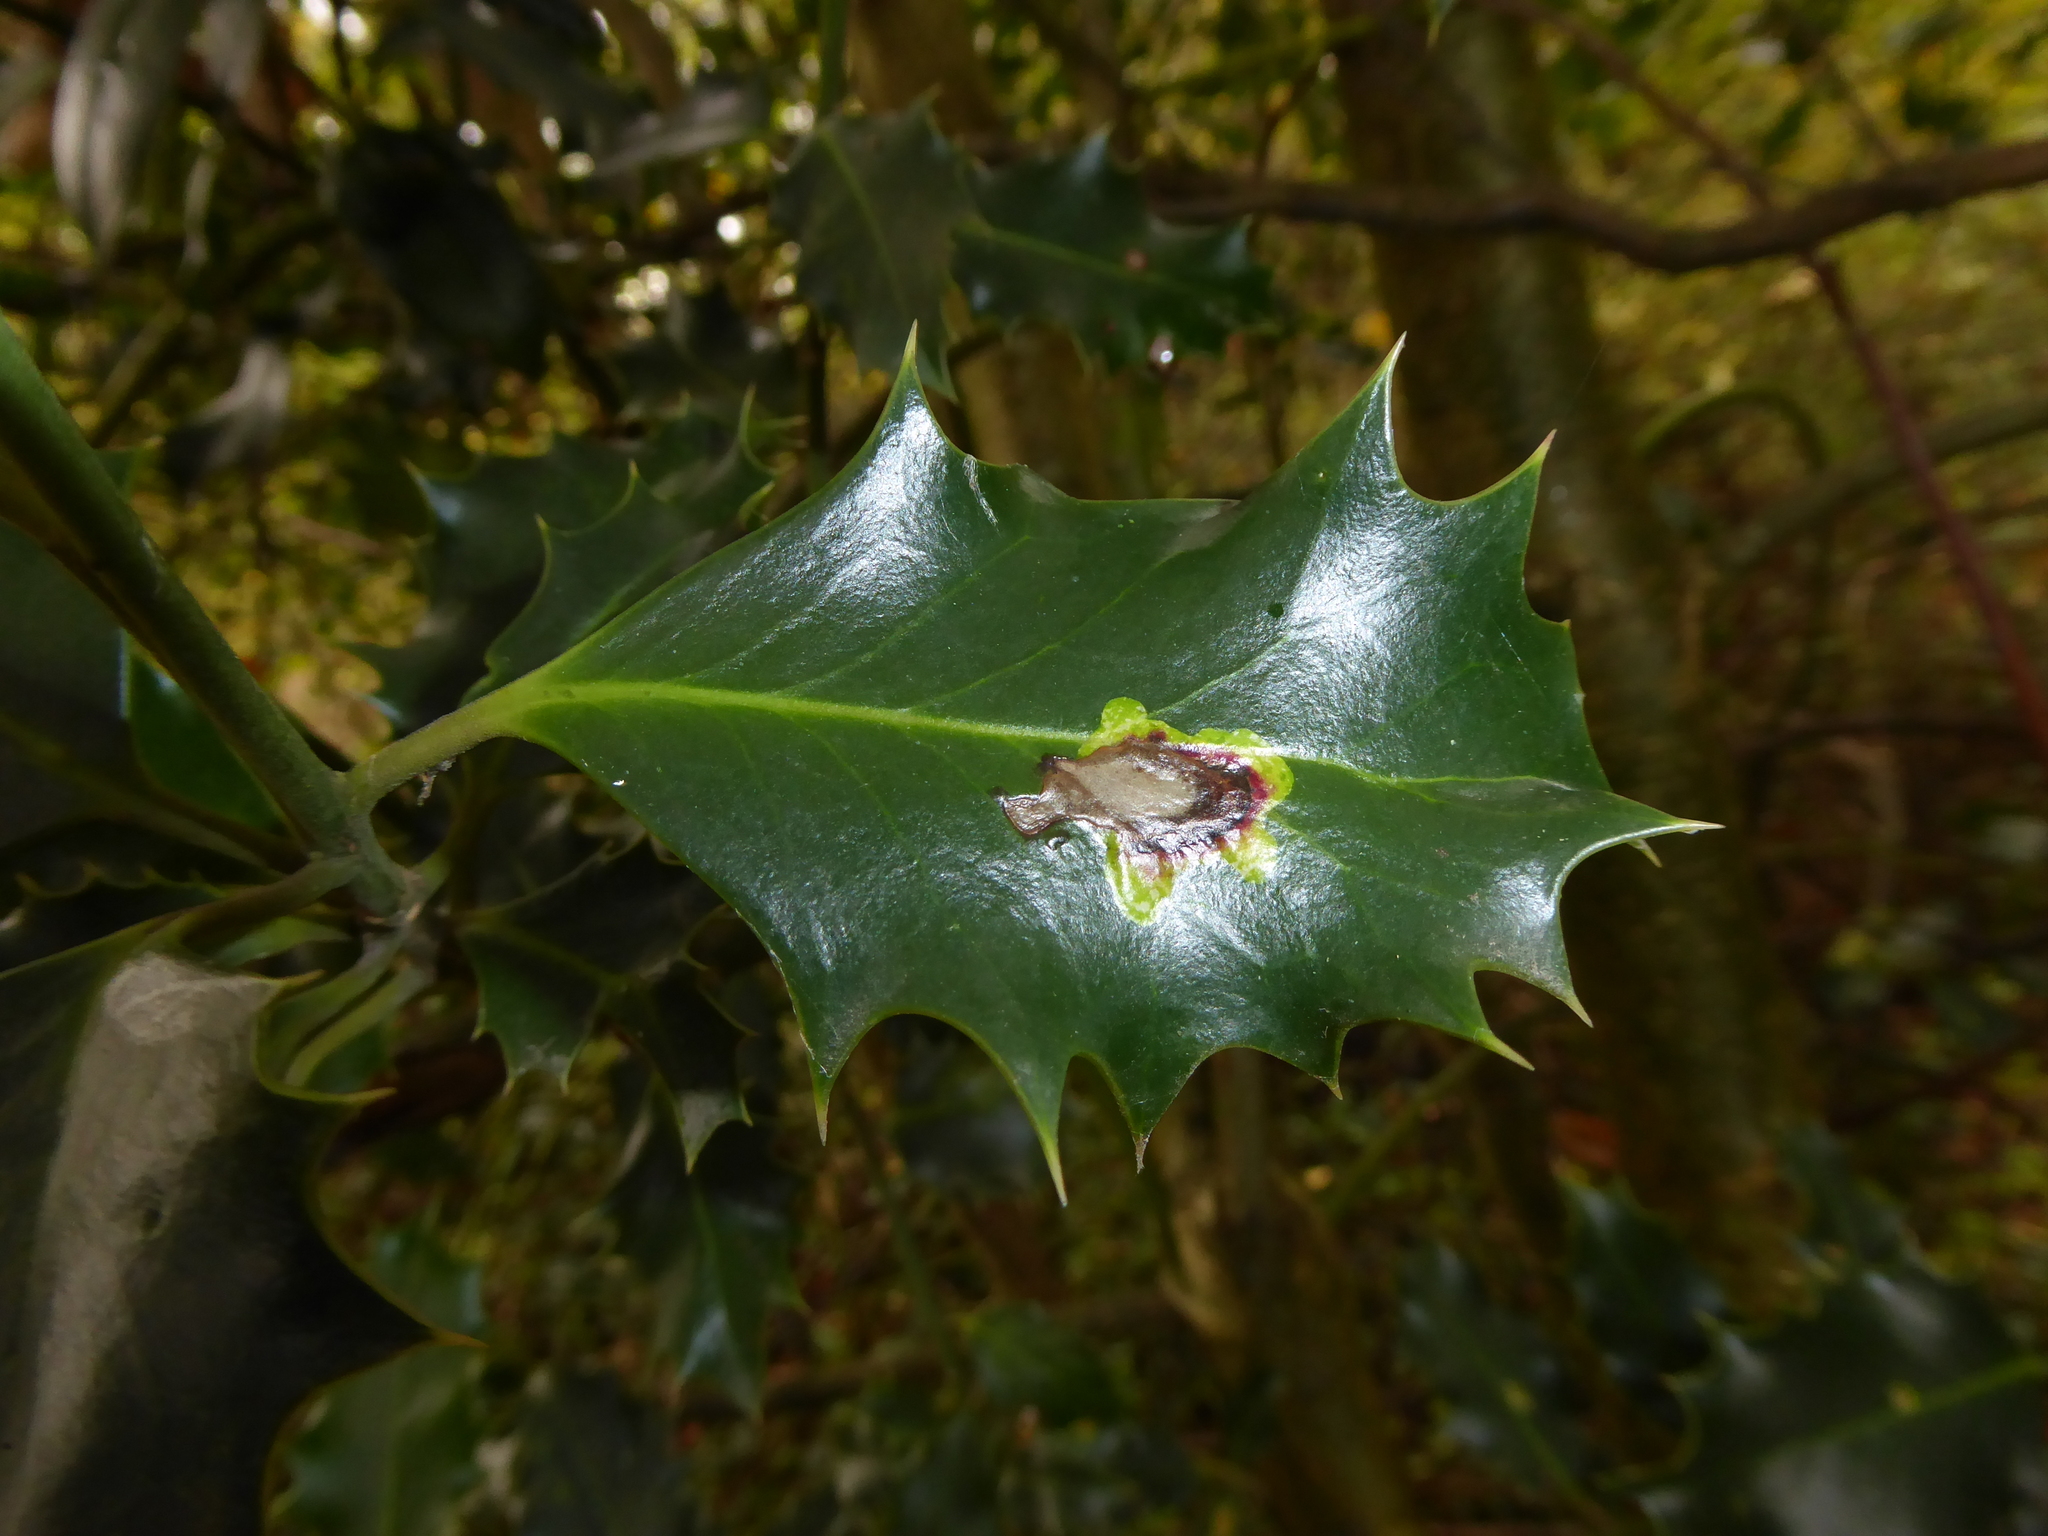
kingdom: Animalia
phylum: Arthropoda
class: Insecta
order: Diptera
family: Agromyzidae
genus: Phytomyza
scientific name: Phytomyza ilicis
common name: Holly leafminer
